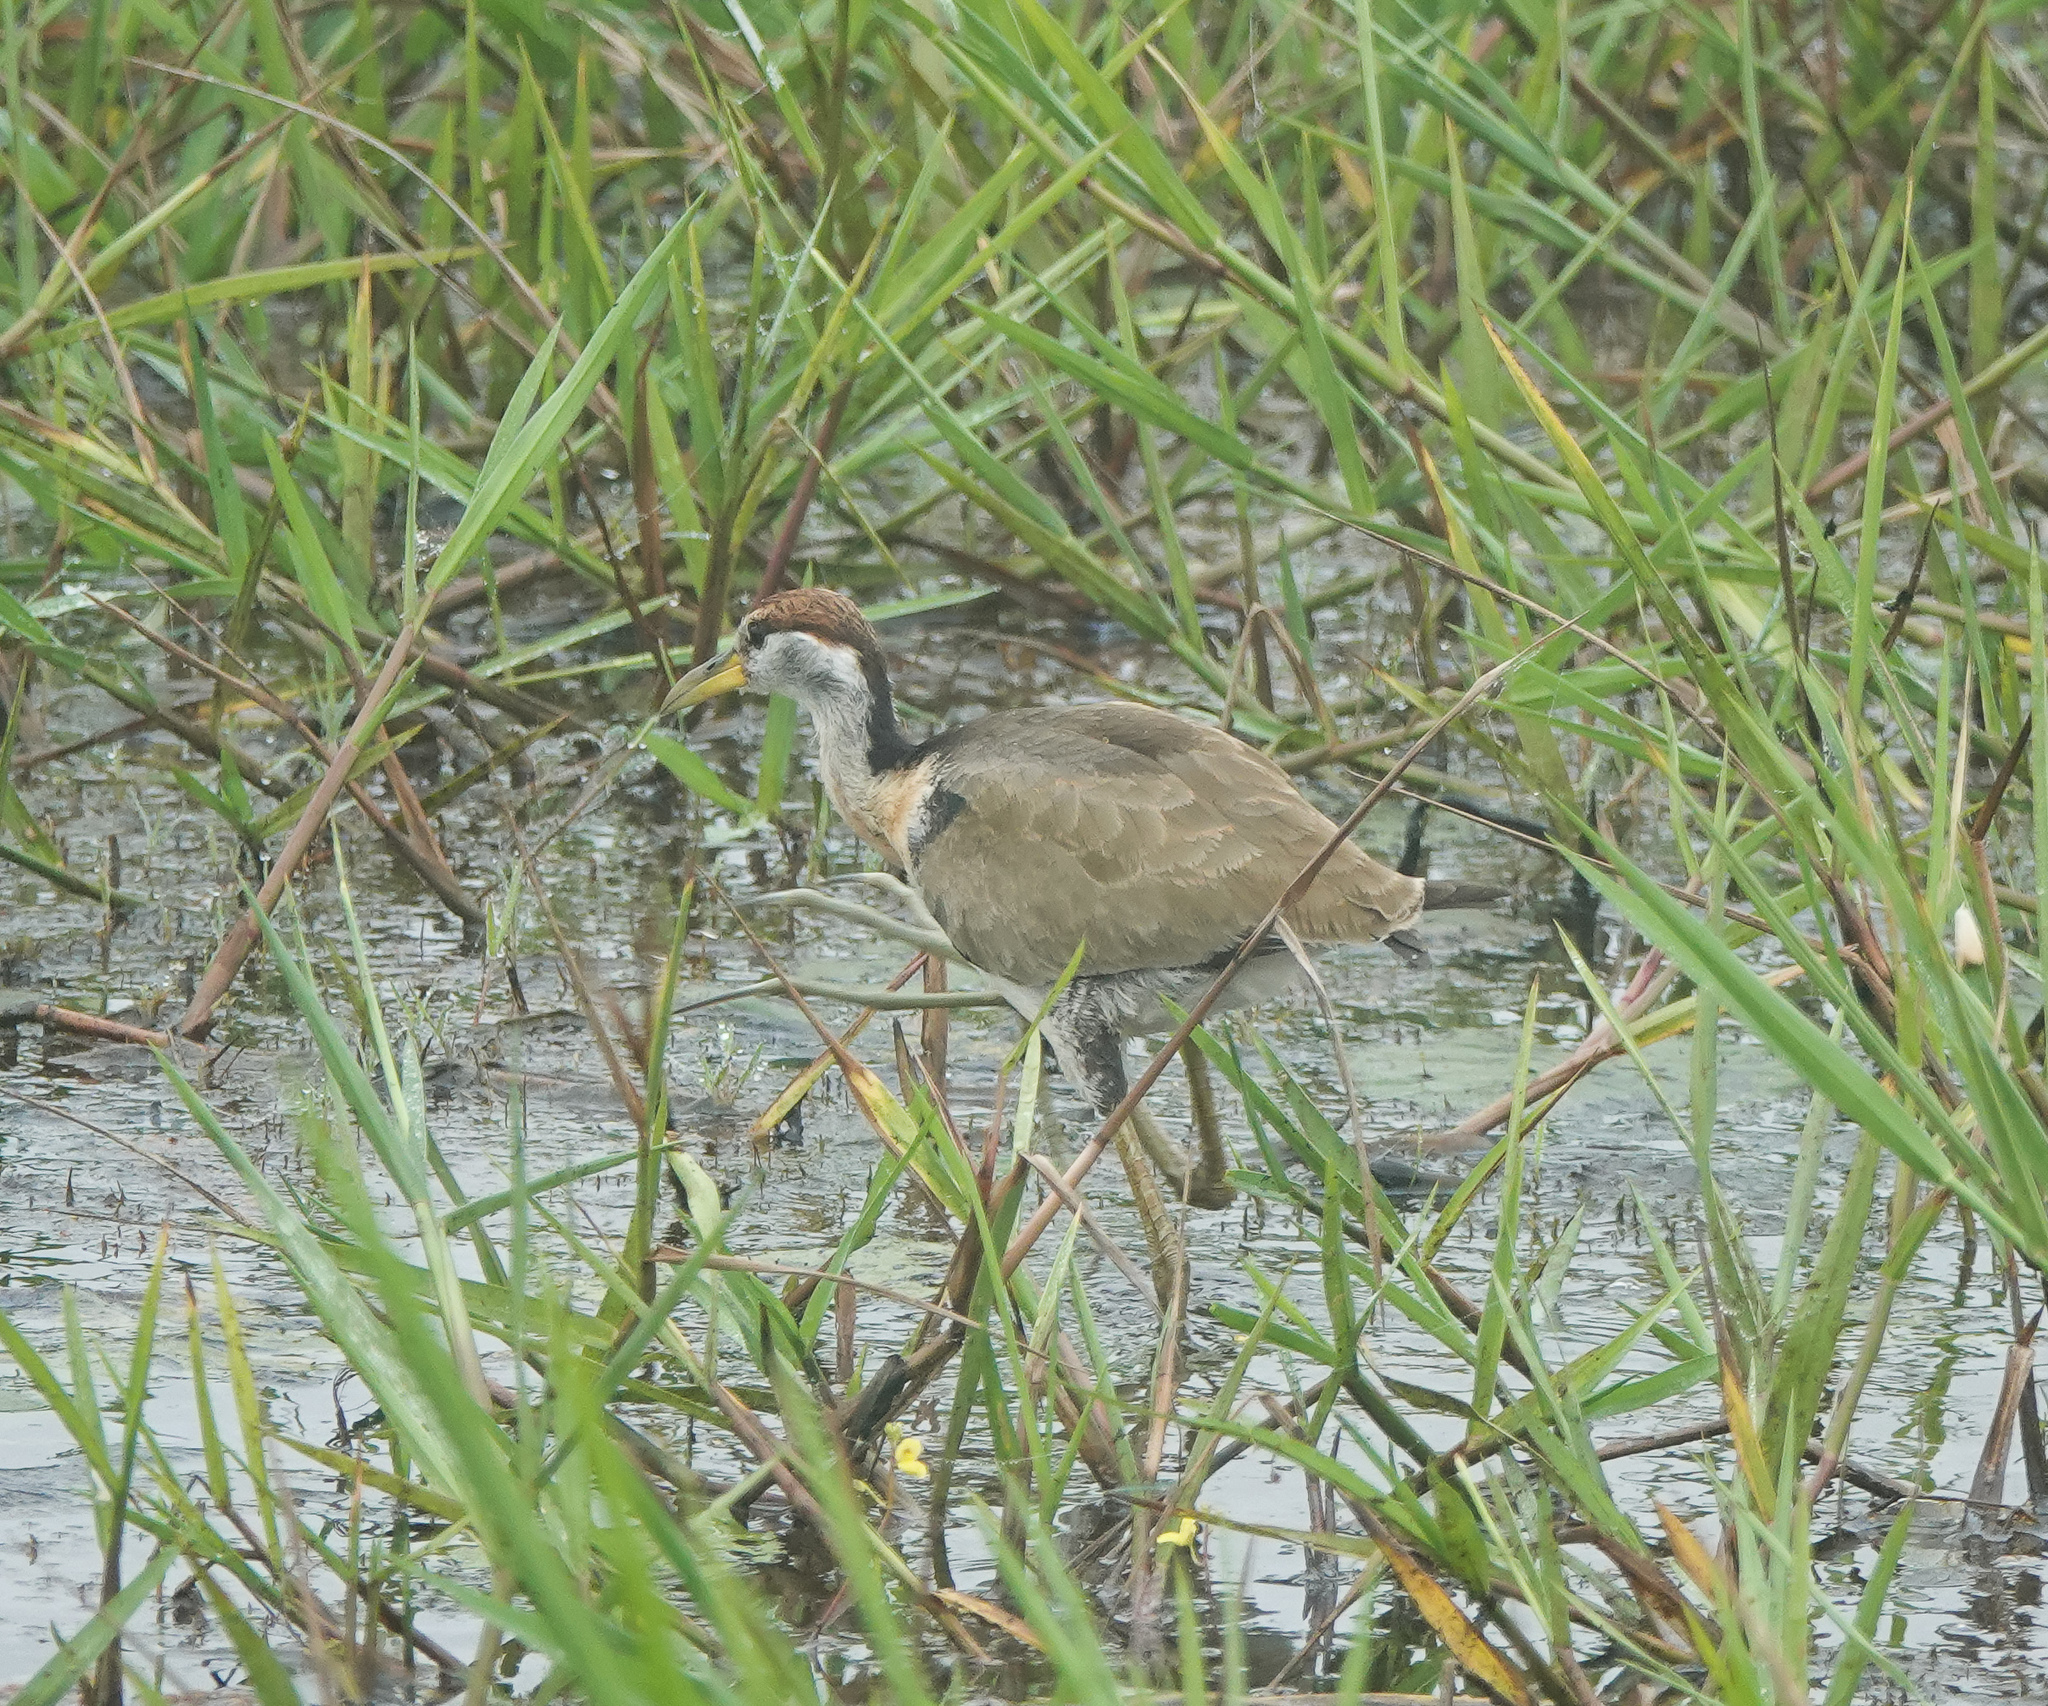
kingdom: Animalia
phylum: Chordata
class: Aves
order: Charadriiformes
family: Jacanidae
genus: Metopidius
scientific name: Metopidius indicus
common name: Bronze-winged jacana
